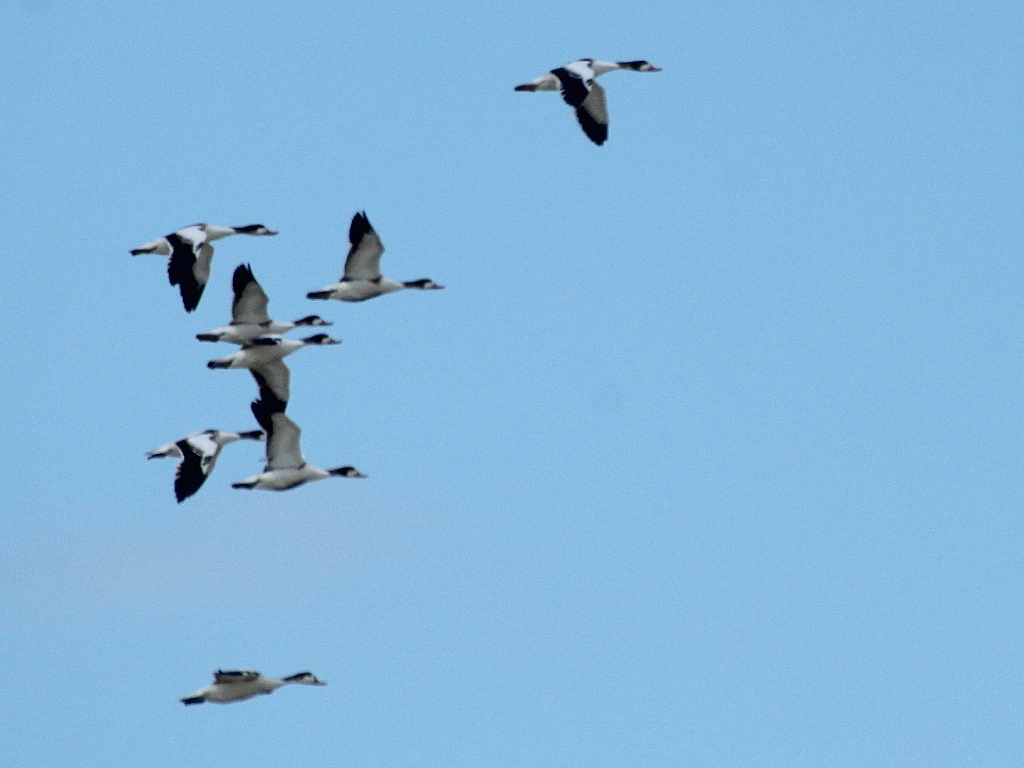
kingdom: Animalia
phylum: Chordata
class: Aves
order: Anseriformes
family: Anatidae
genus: Tadorna
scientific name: Tadorna tadorna
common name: Common shelduck
